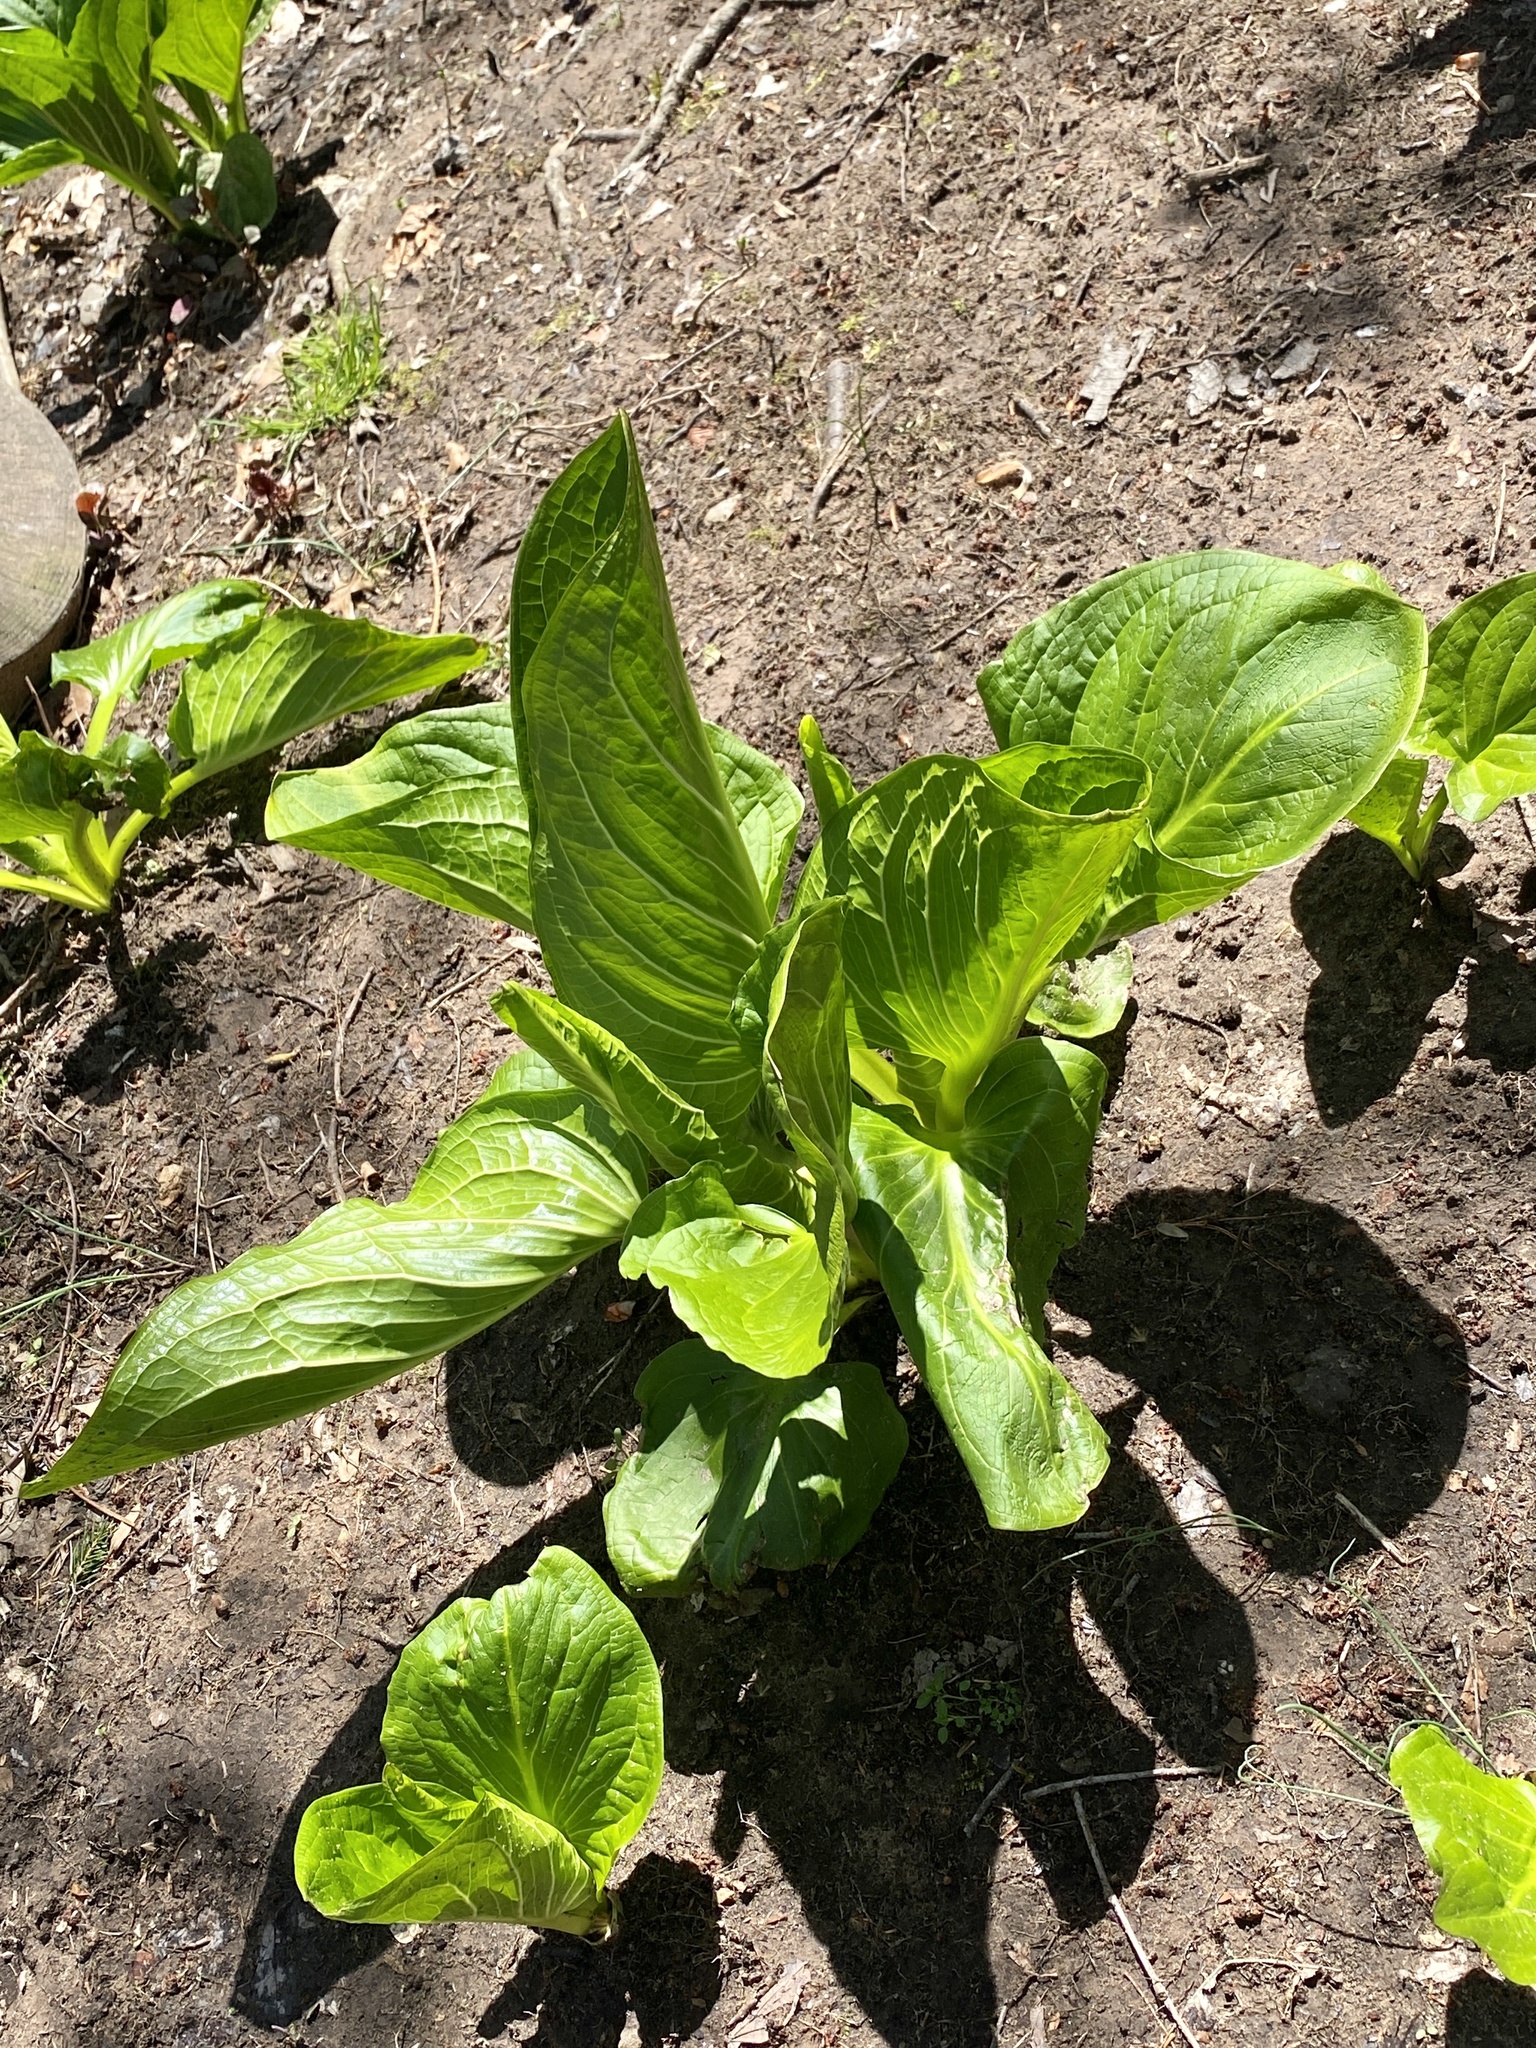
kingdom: Plantae
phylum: Tracheophyta
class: Liliopsida
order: Alismatales
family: Araceae
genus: Symplocarpus
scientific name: Symplocarpus foetidus
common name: Eastern skunk cabbage
